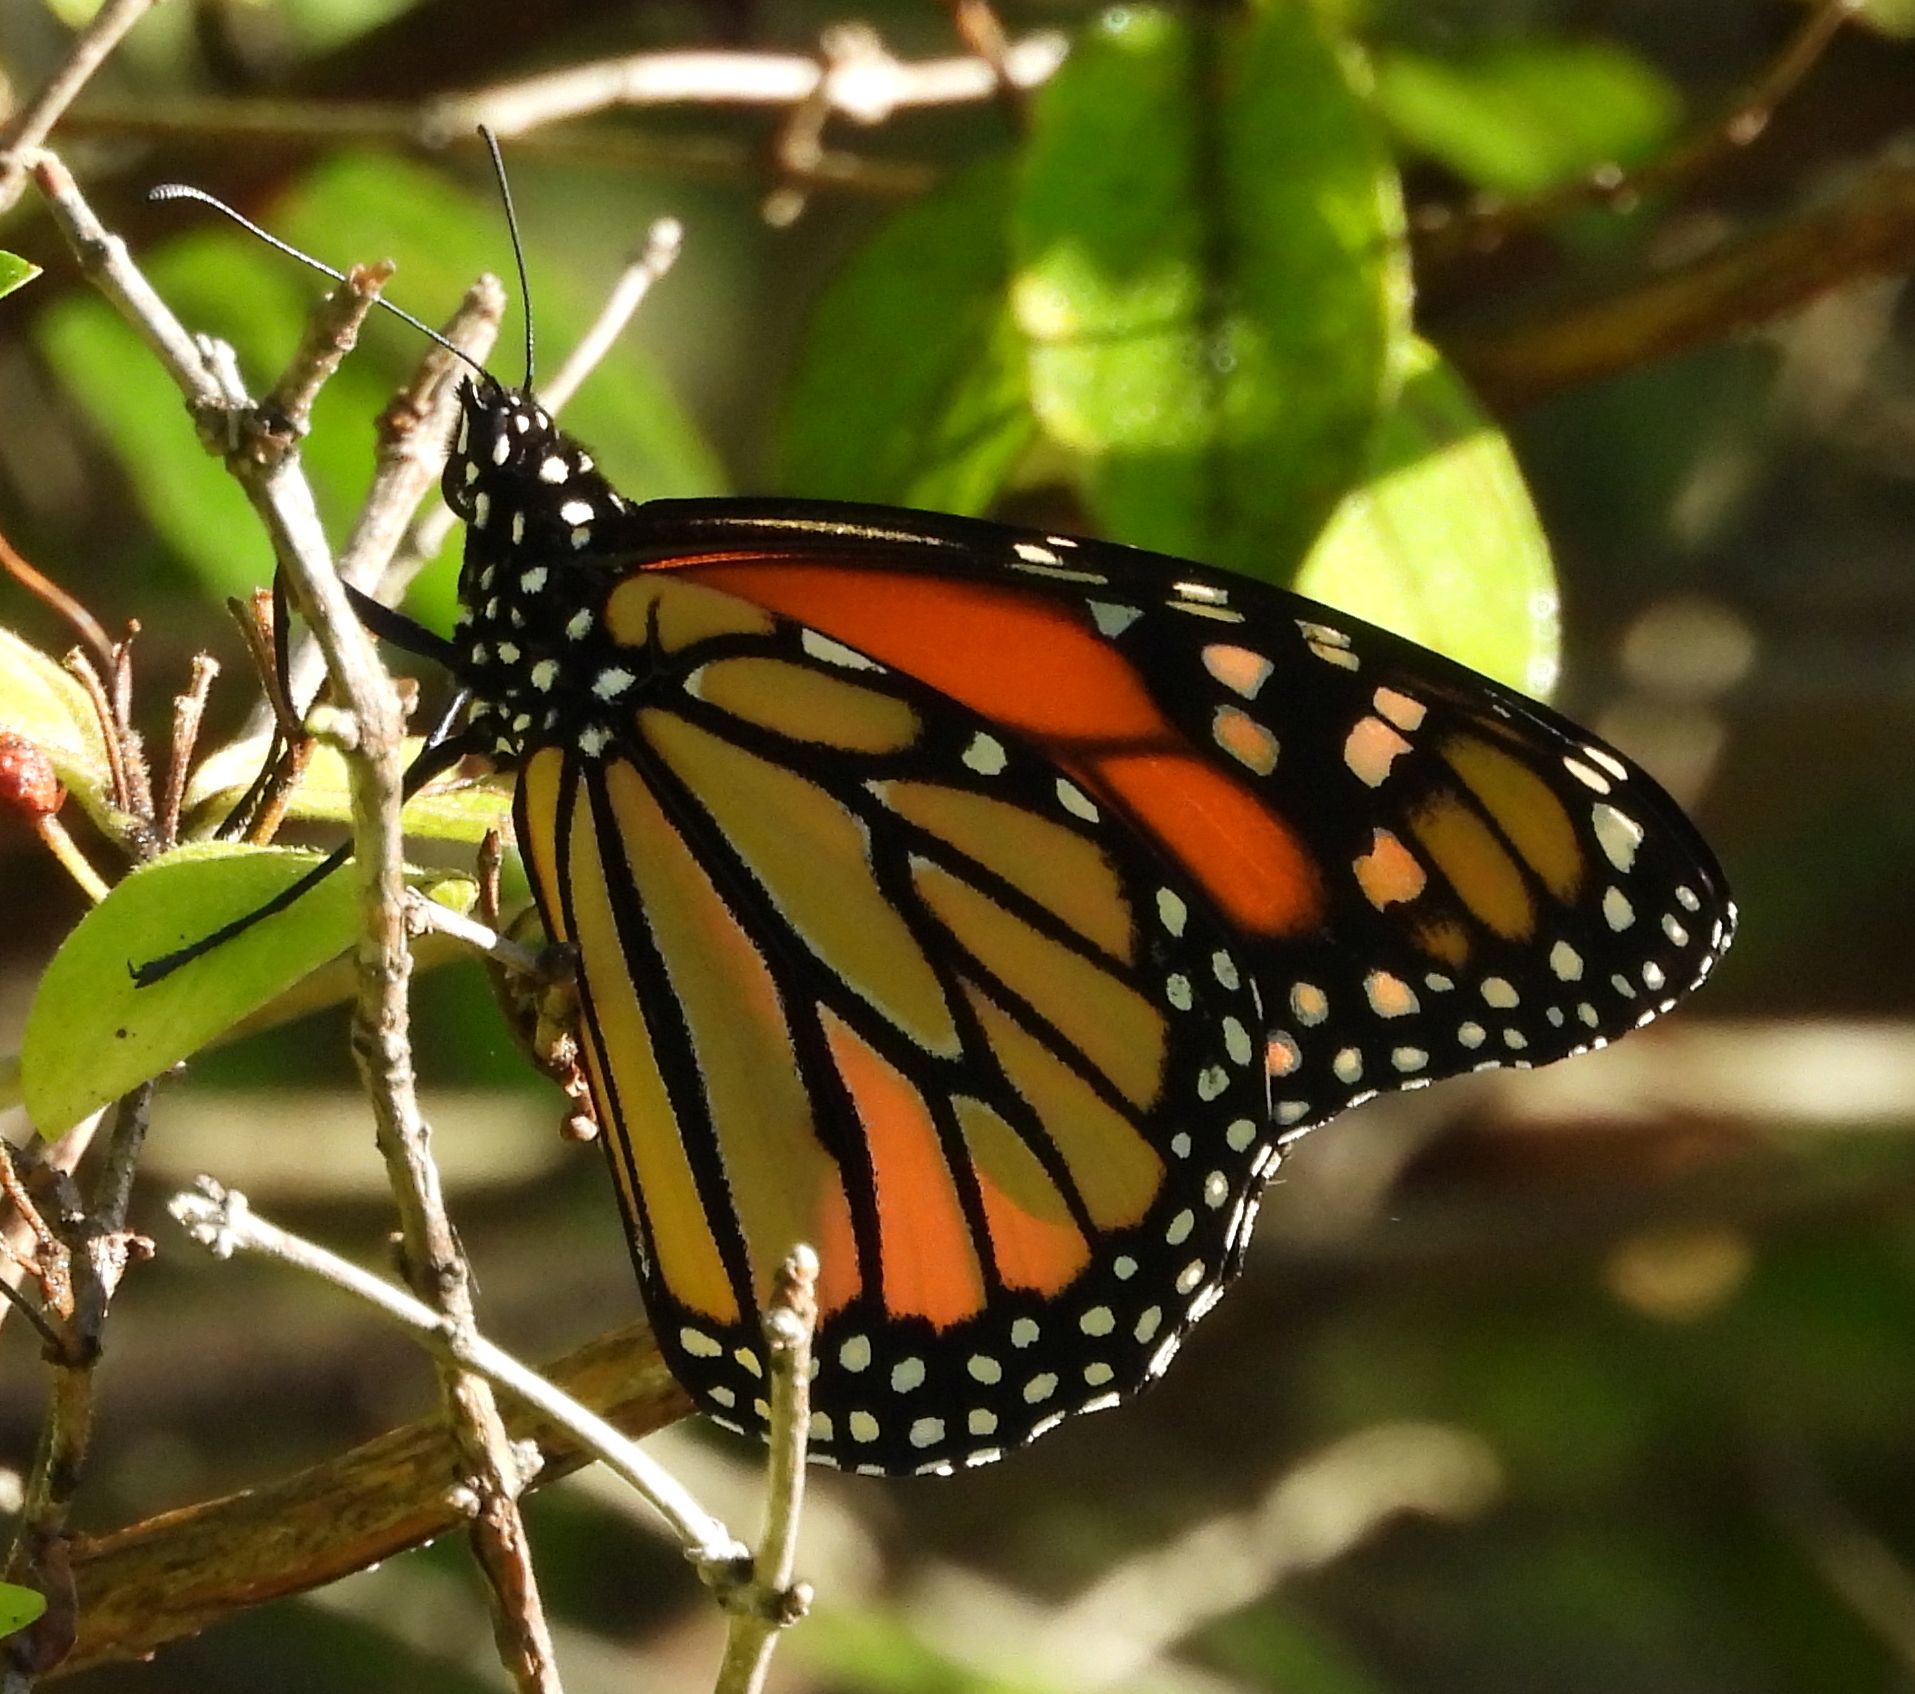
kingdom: Animalia
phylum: Arthropoda
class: Insecta
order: Lepidoptera
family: Nymphalidae
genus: Danaus
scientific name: Danaus plexippus
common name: Monarch
